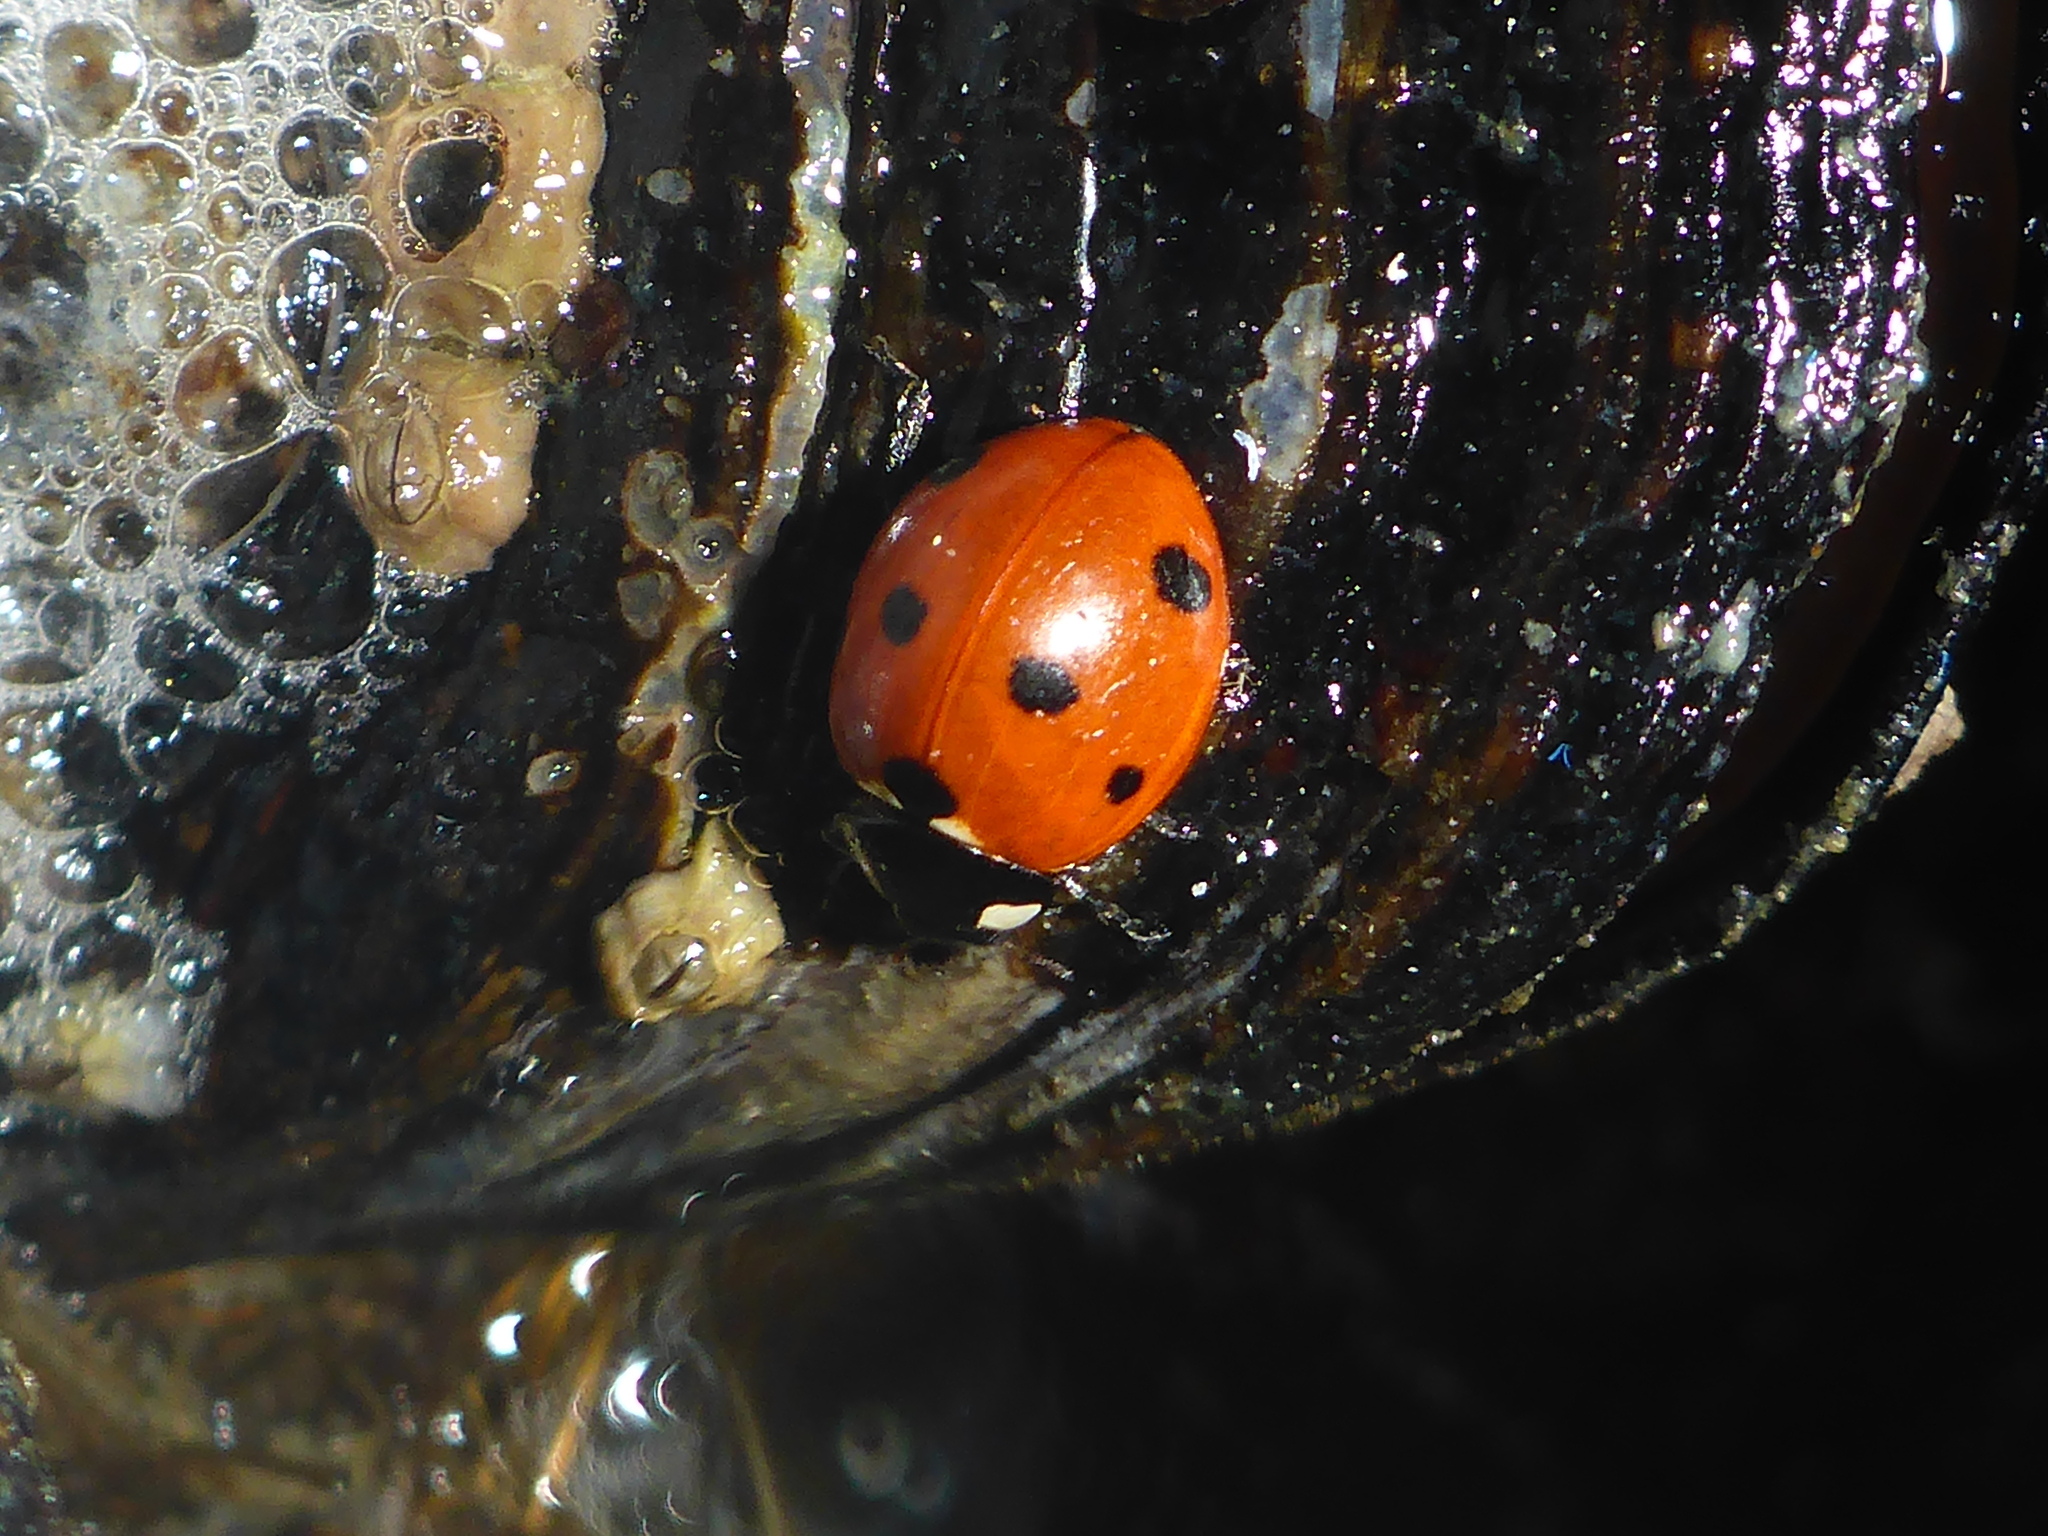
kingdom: Animalia
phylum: Arthropoda
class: Insecta
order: Coleoptera
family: Coccinellidae
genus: Coccinella
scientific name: Coccinella septempunctata
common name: Sevenspotted lady beetle
